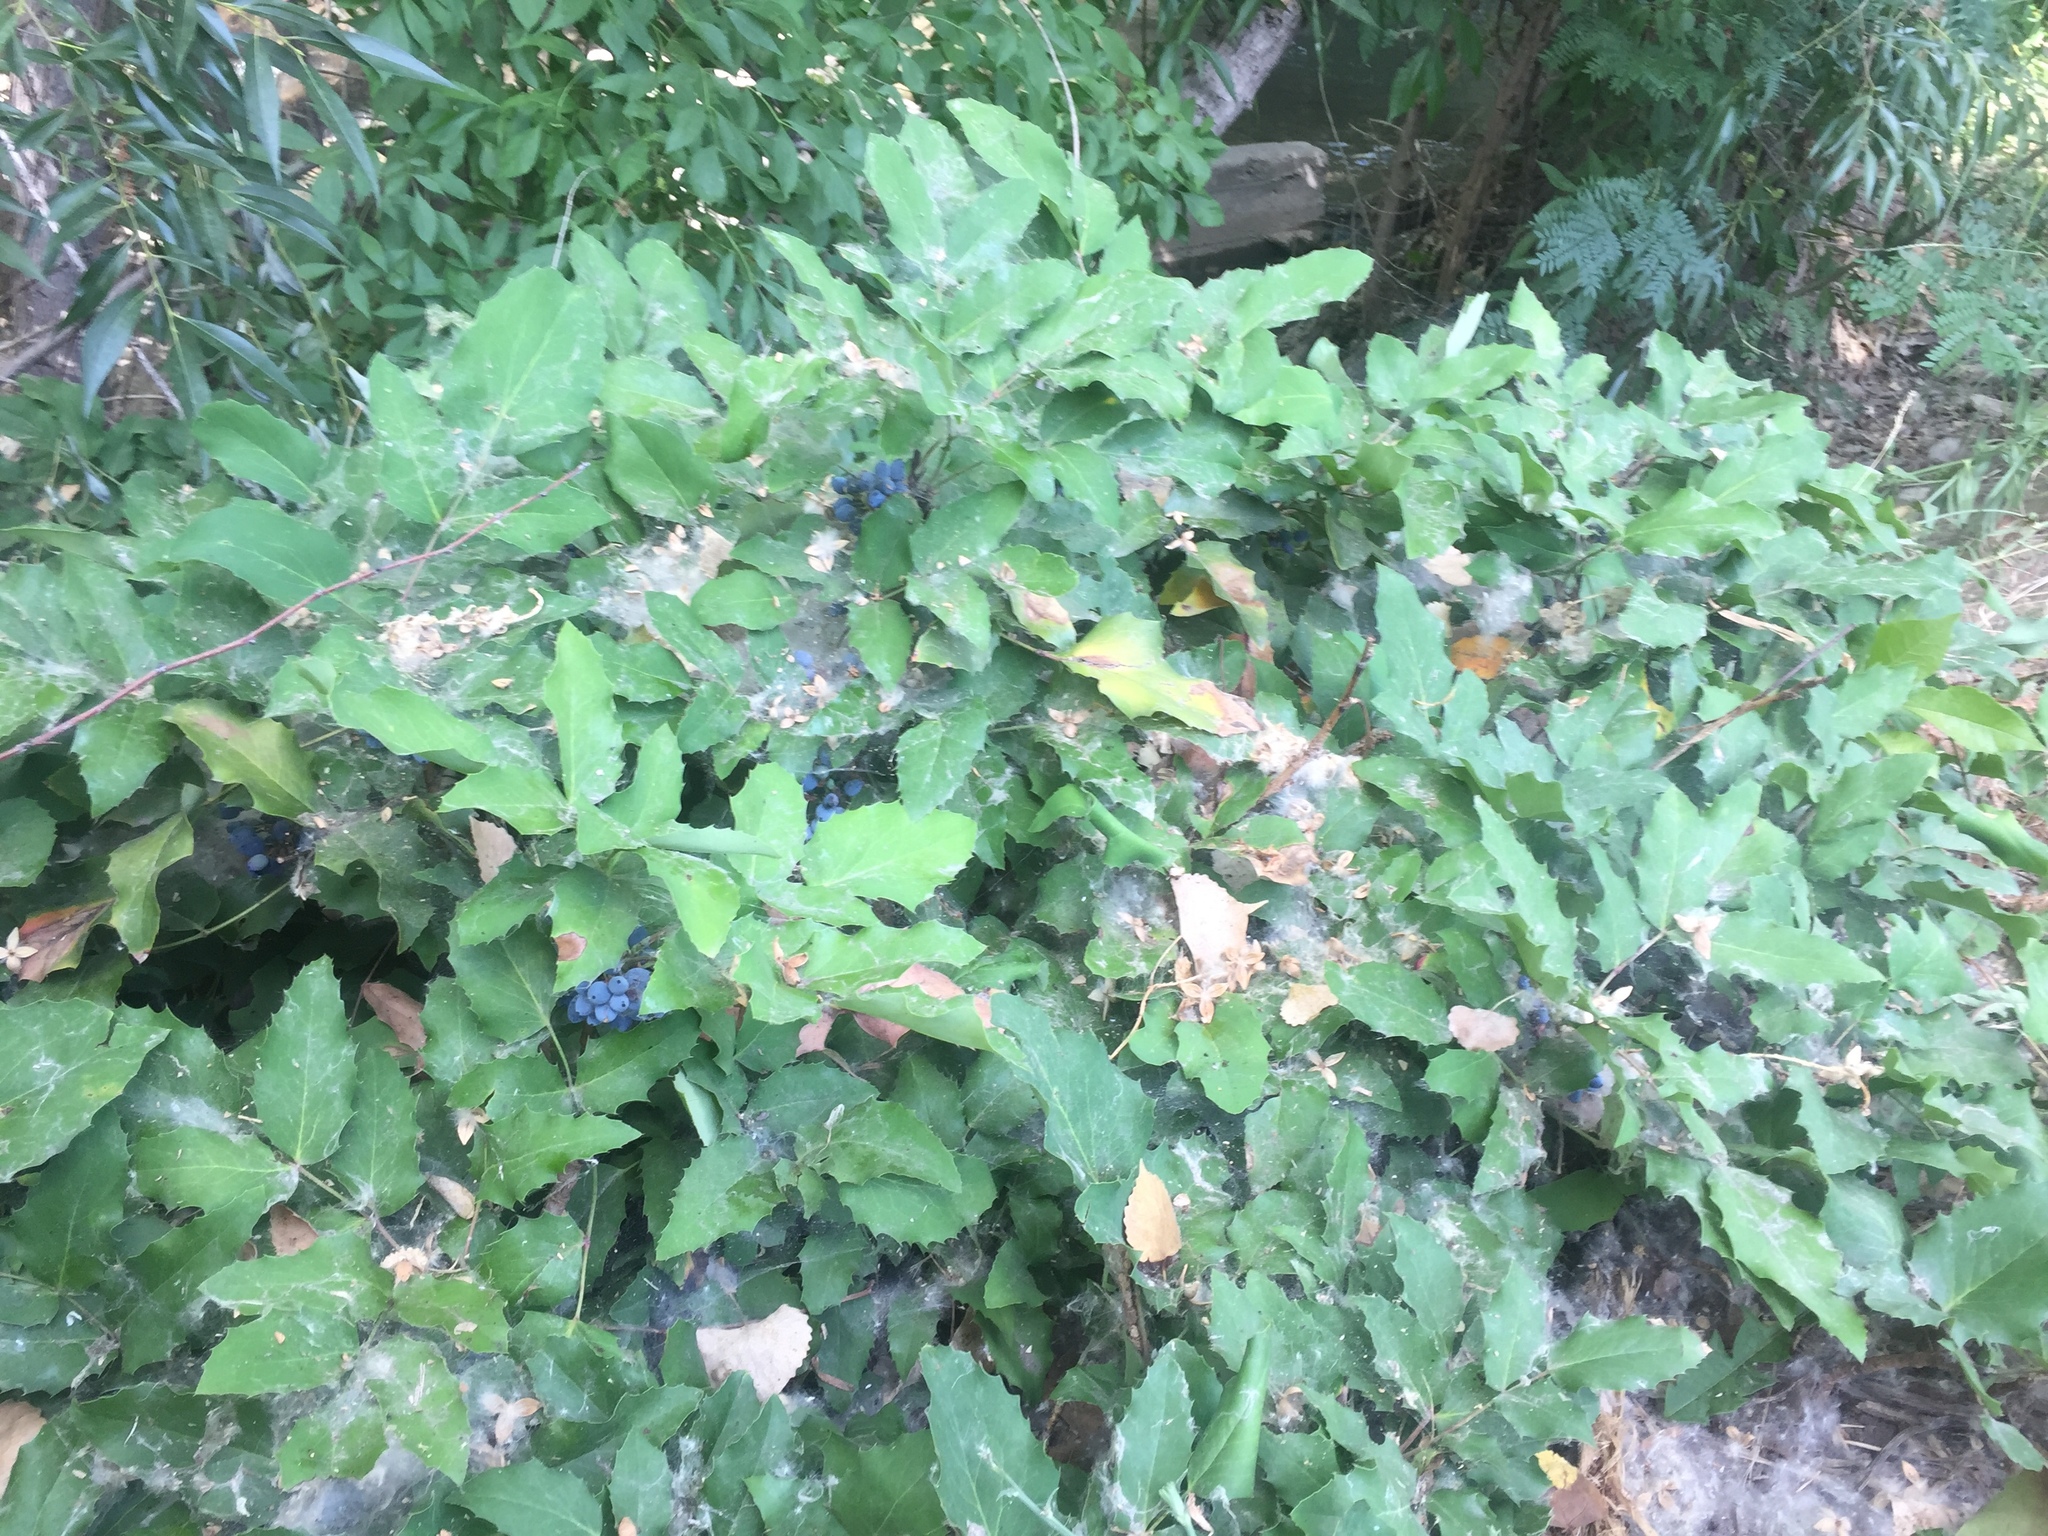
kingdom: Plantae
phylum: Tracheophyta
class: Magnoliopsida
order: Ranunculales
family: Berberidaceae
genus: Mahonia
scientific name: Mahonia repens
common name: Creeping oregon-grape
